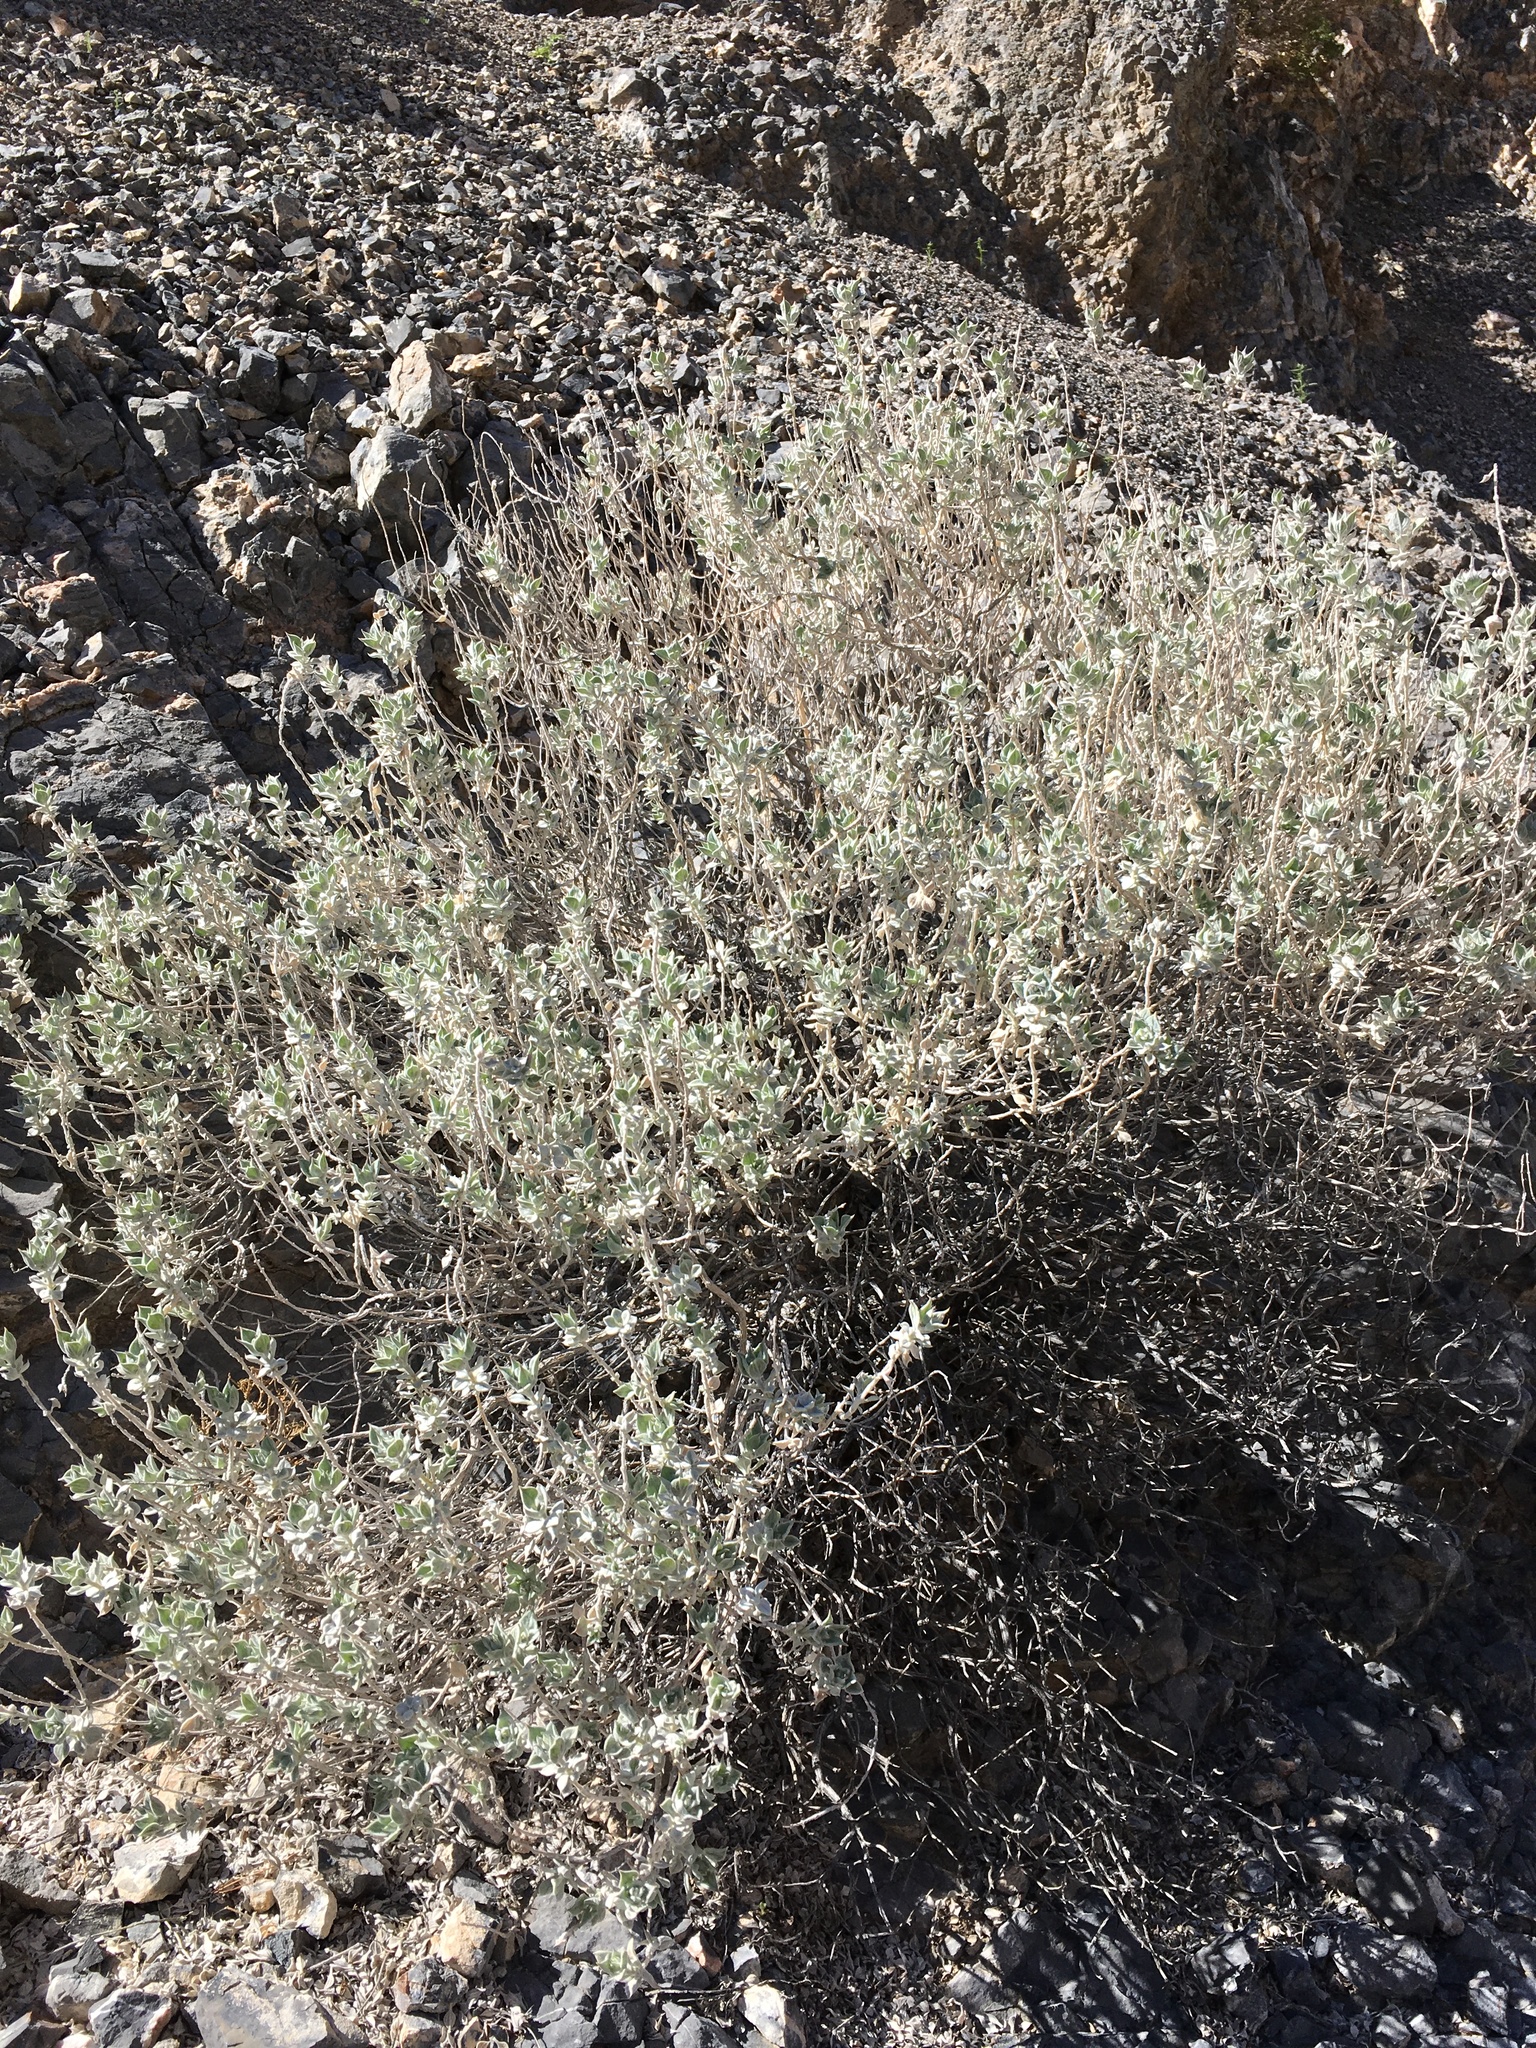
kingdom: Plantae
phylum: Tracheophyta
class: Magnoliopsida
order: Lamiales
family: Lamiaceae
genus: Salvia
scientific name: Salvia funerea
